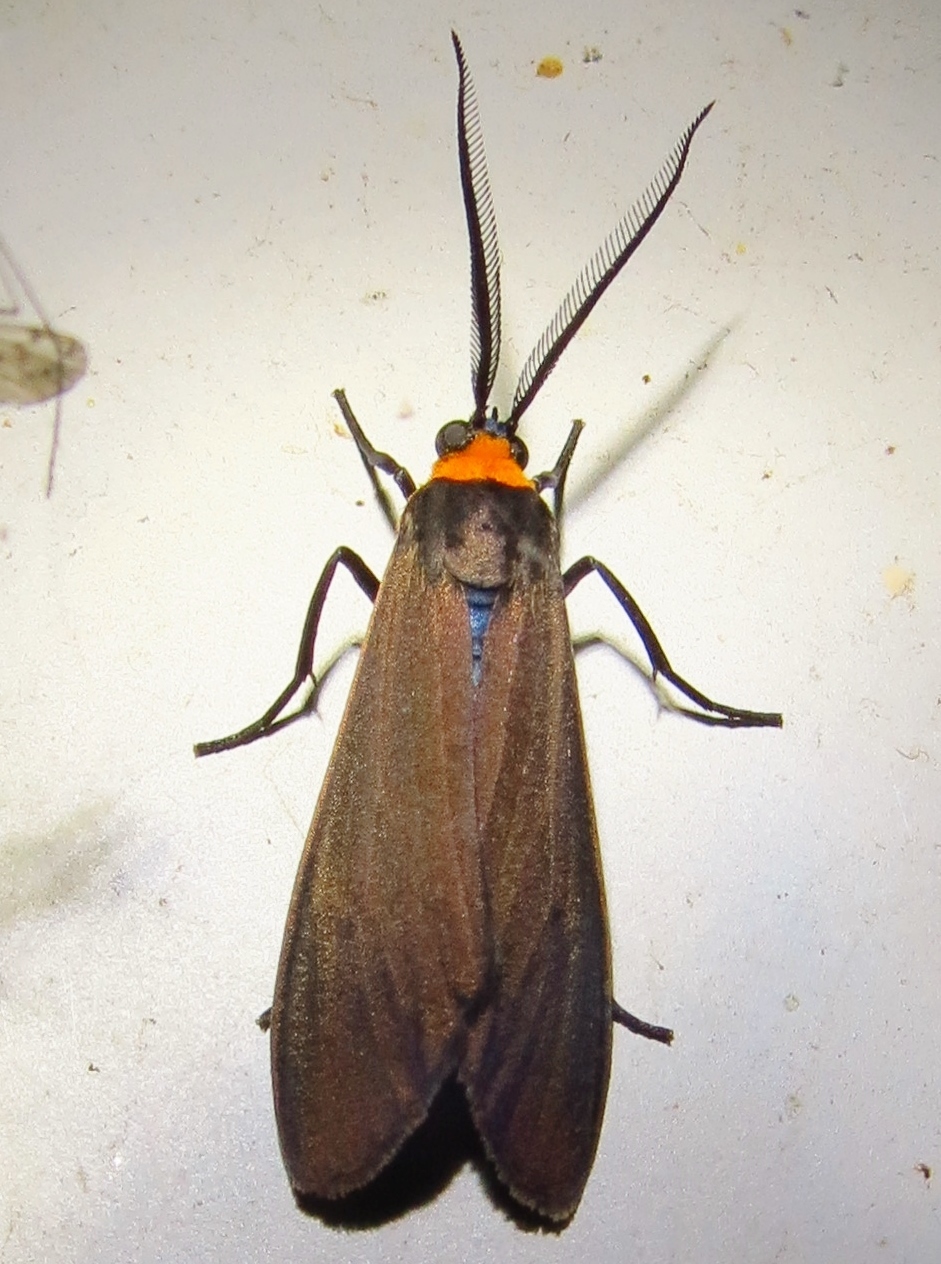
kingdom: Animalia
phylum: Arthropoda
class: Insecta
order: Lepidoptera
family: Erebidae
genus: Cisseps
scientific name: Cisseps fulvicollis
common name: Yellow-collared scape moth
